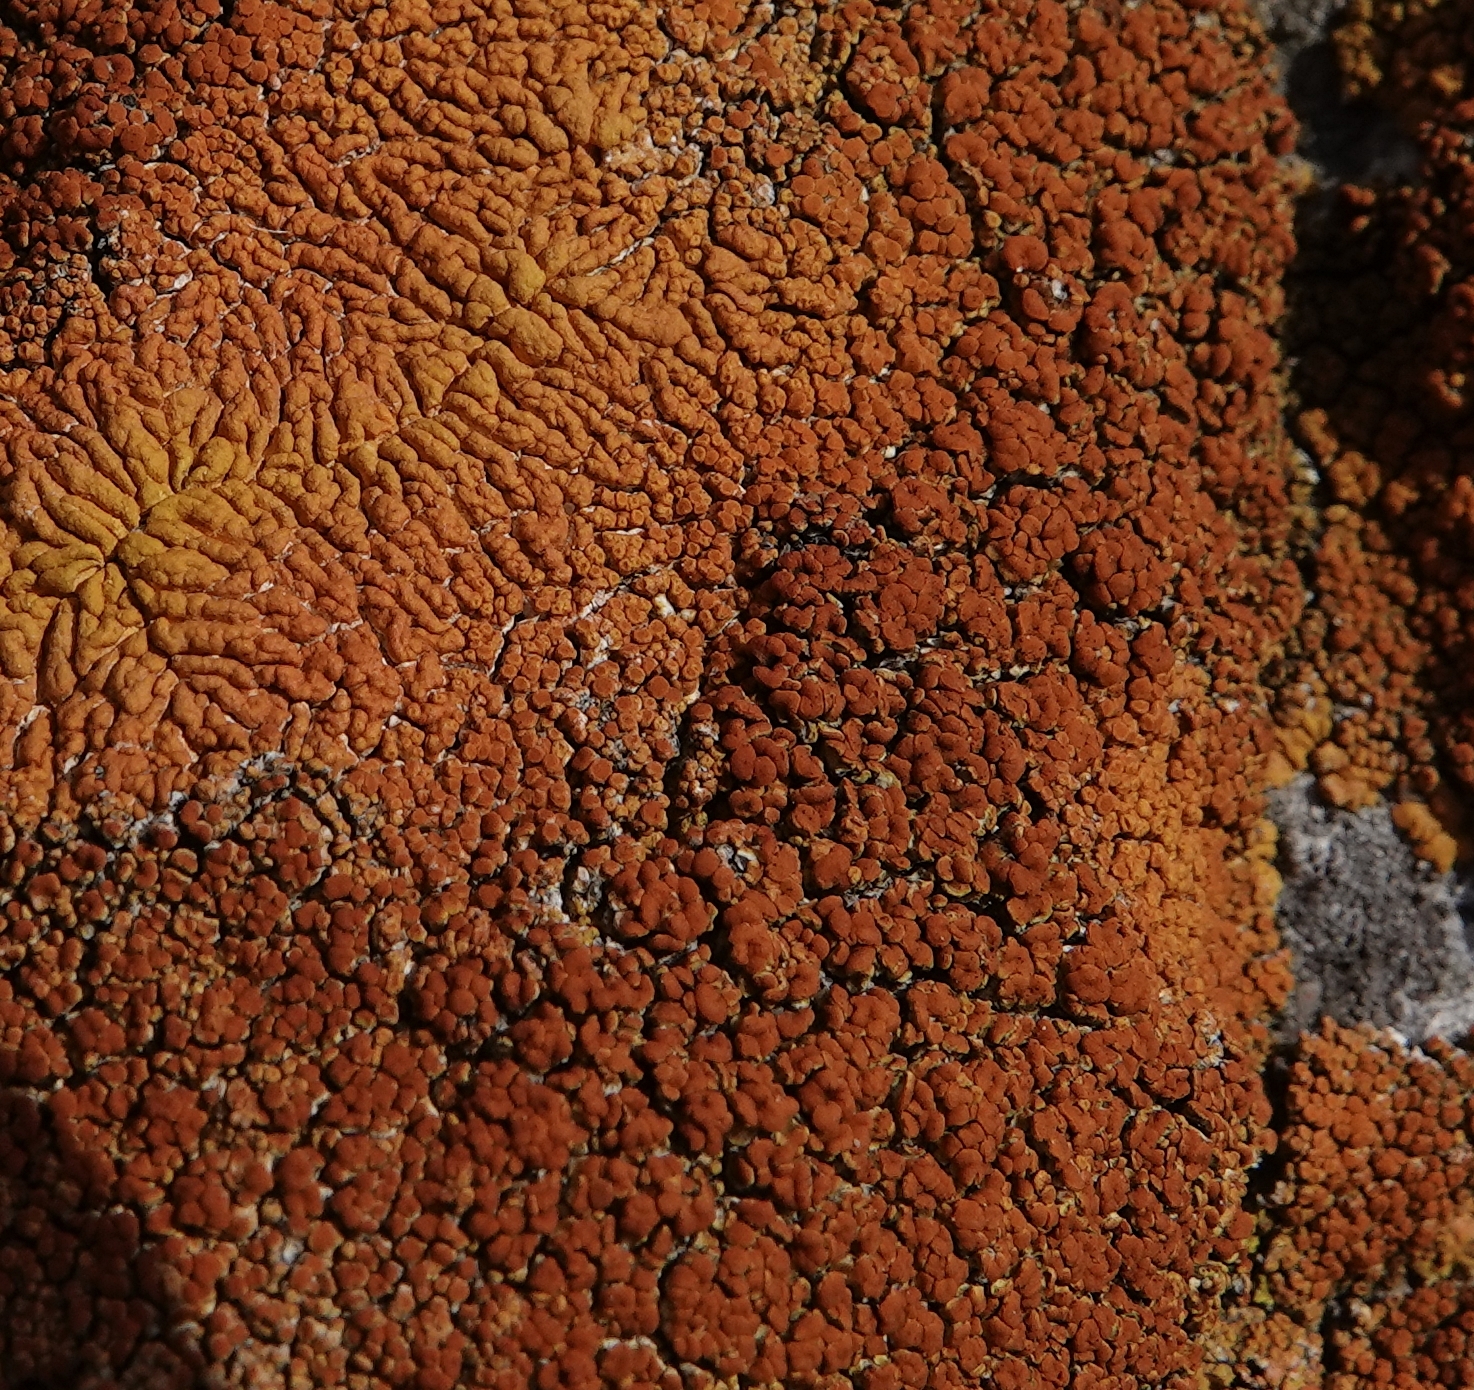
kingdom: Fungi
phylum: Ascomycota
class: Lecanoromycetes
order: Teloschistales
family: Teloschistaceae
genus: Xanthoria
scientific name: Xanthoria elegans
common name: Elegant sunburst lichen
